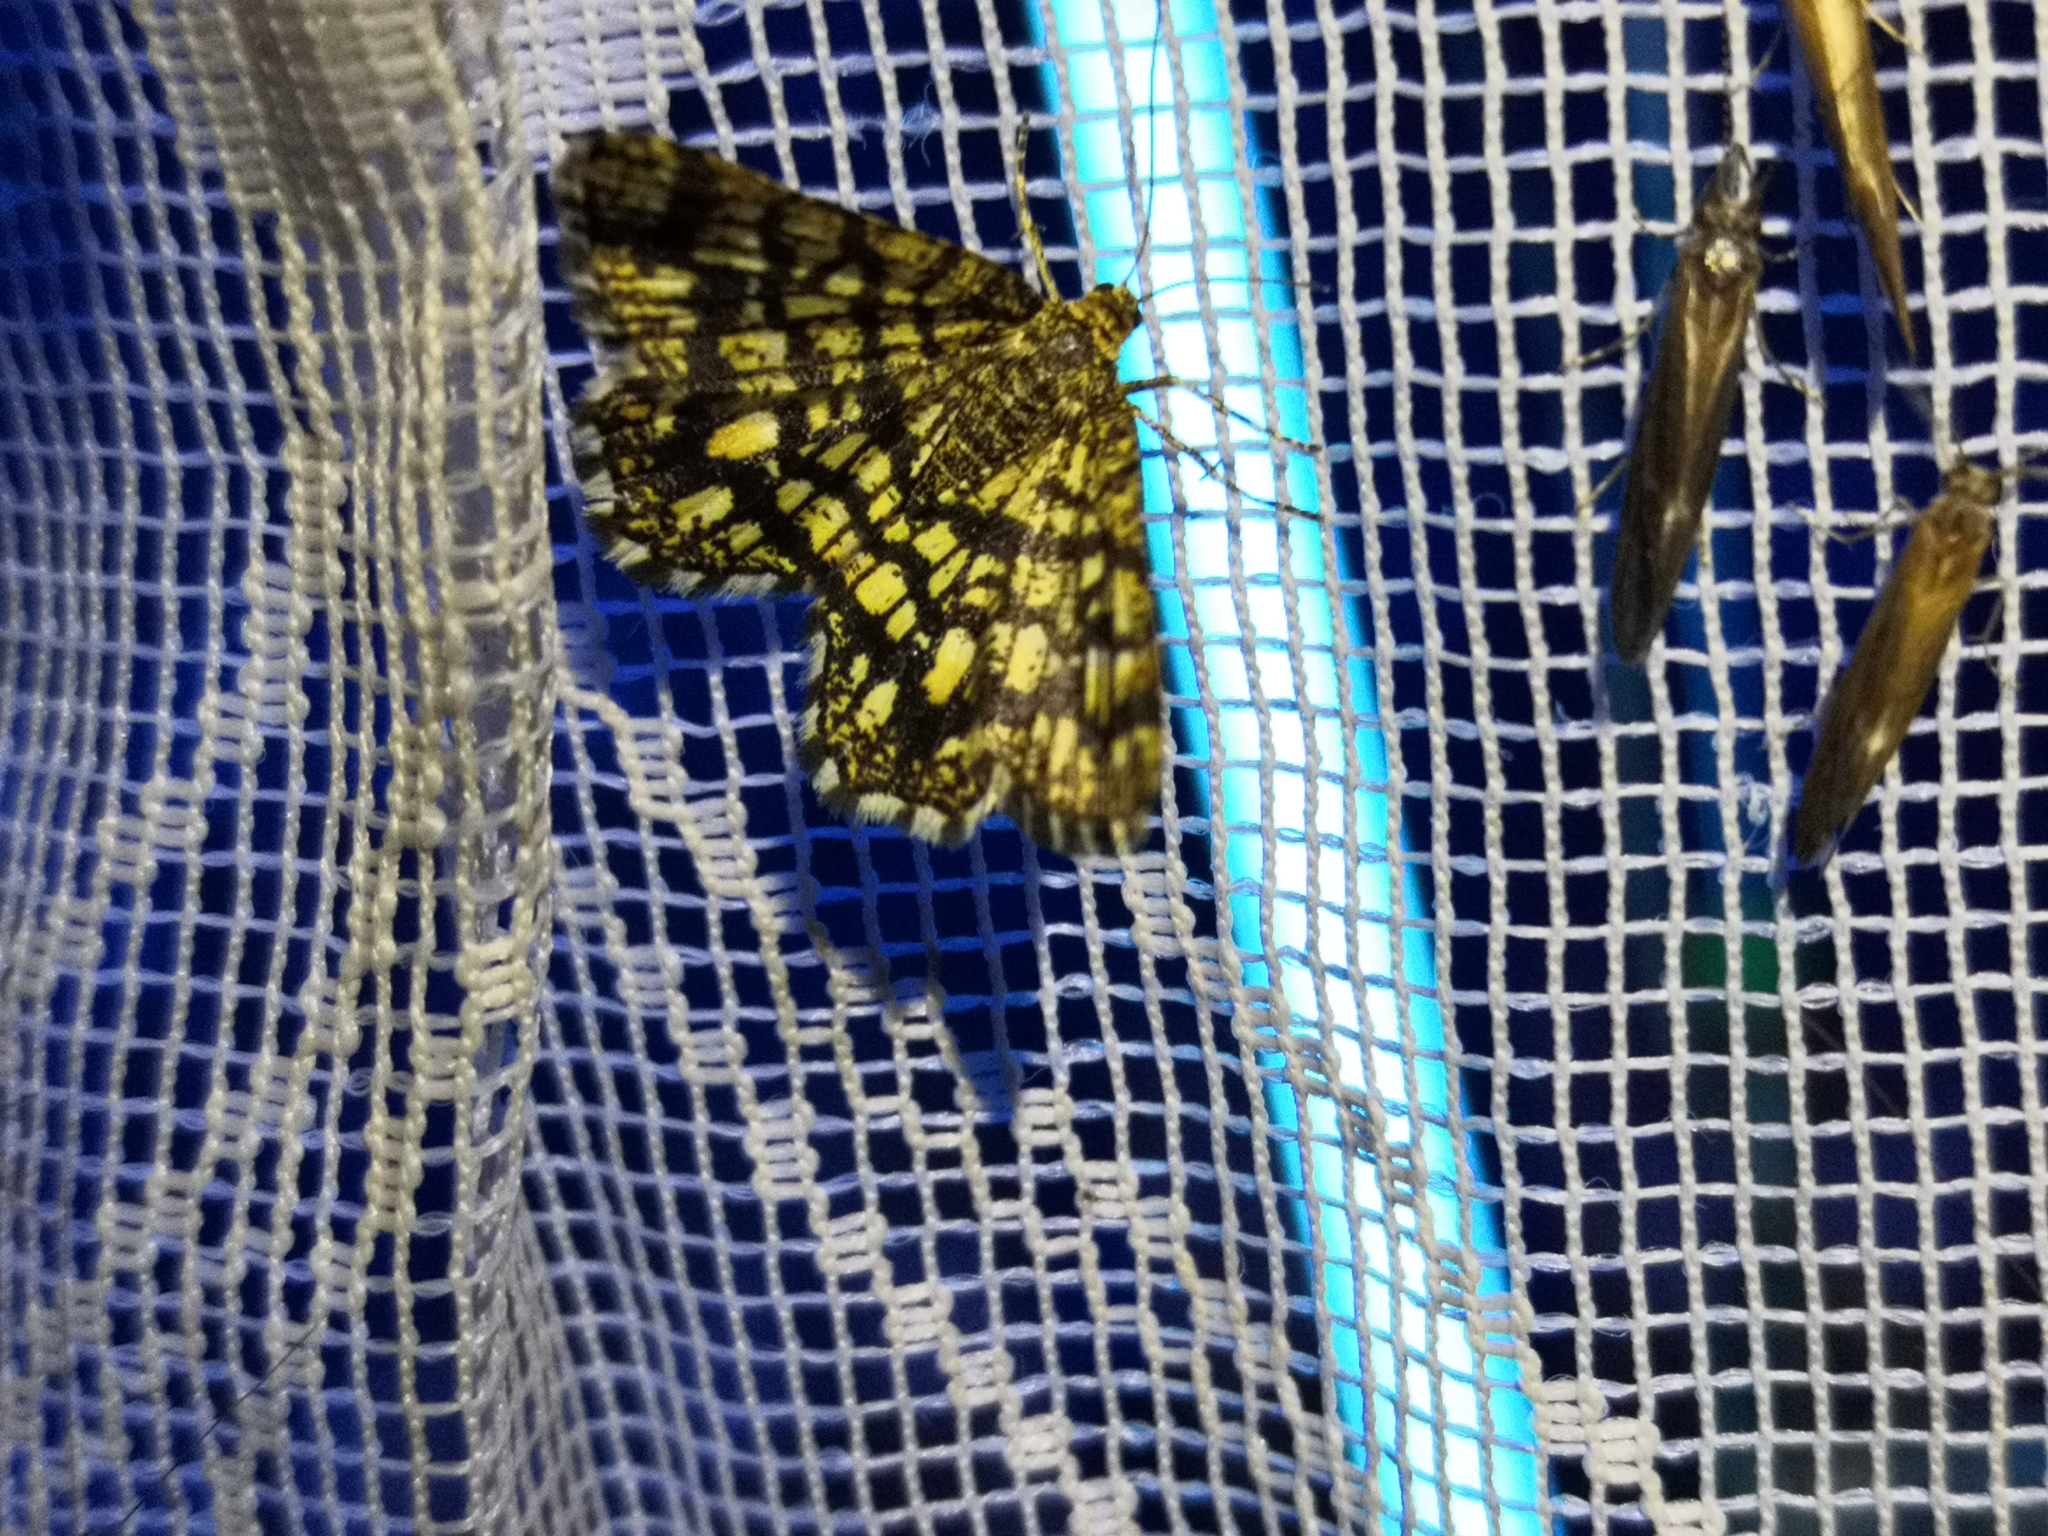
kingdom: Animalia
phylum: Arthropoda
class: Insecta
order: Lepidoptera
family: Geometridae
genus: Chiasmia
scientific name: Chiasmia clathrata
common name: Latticed heath
